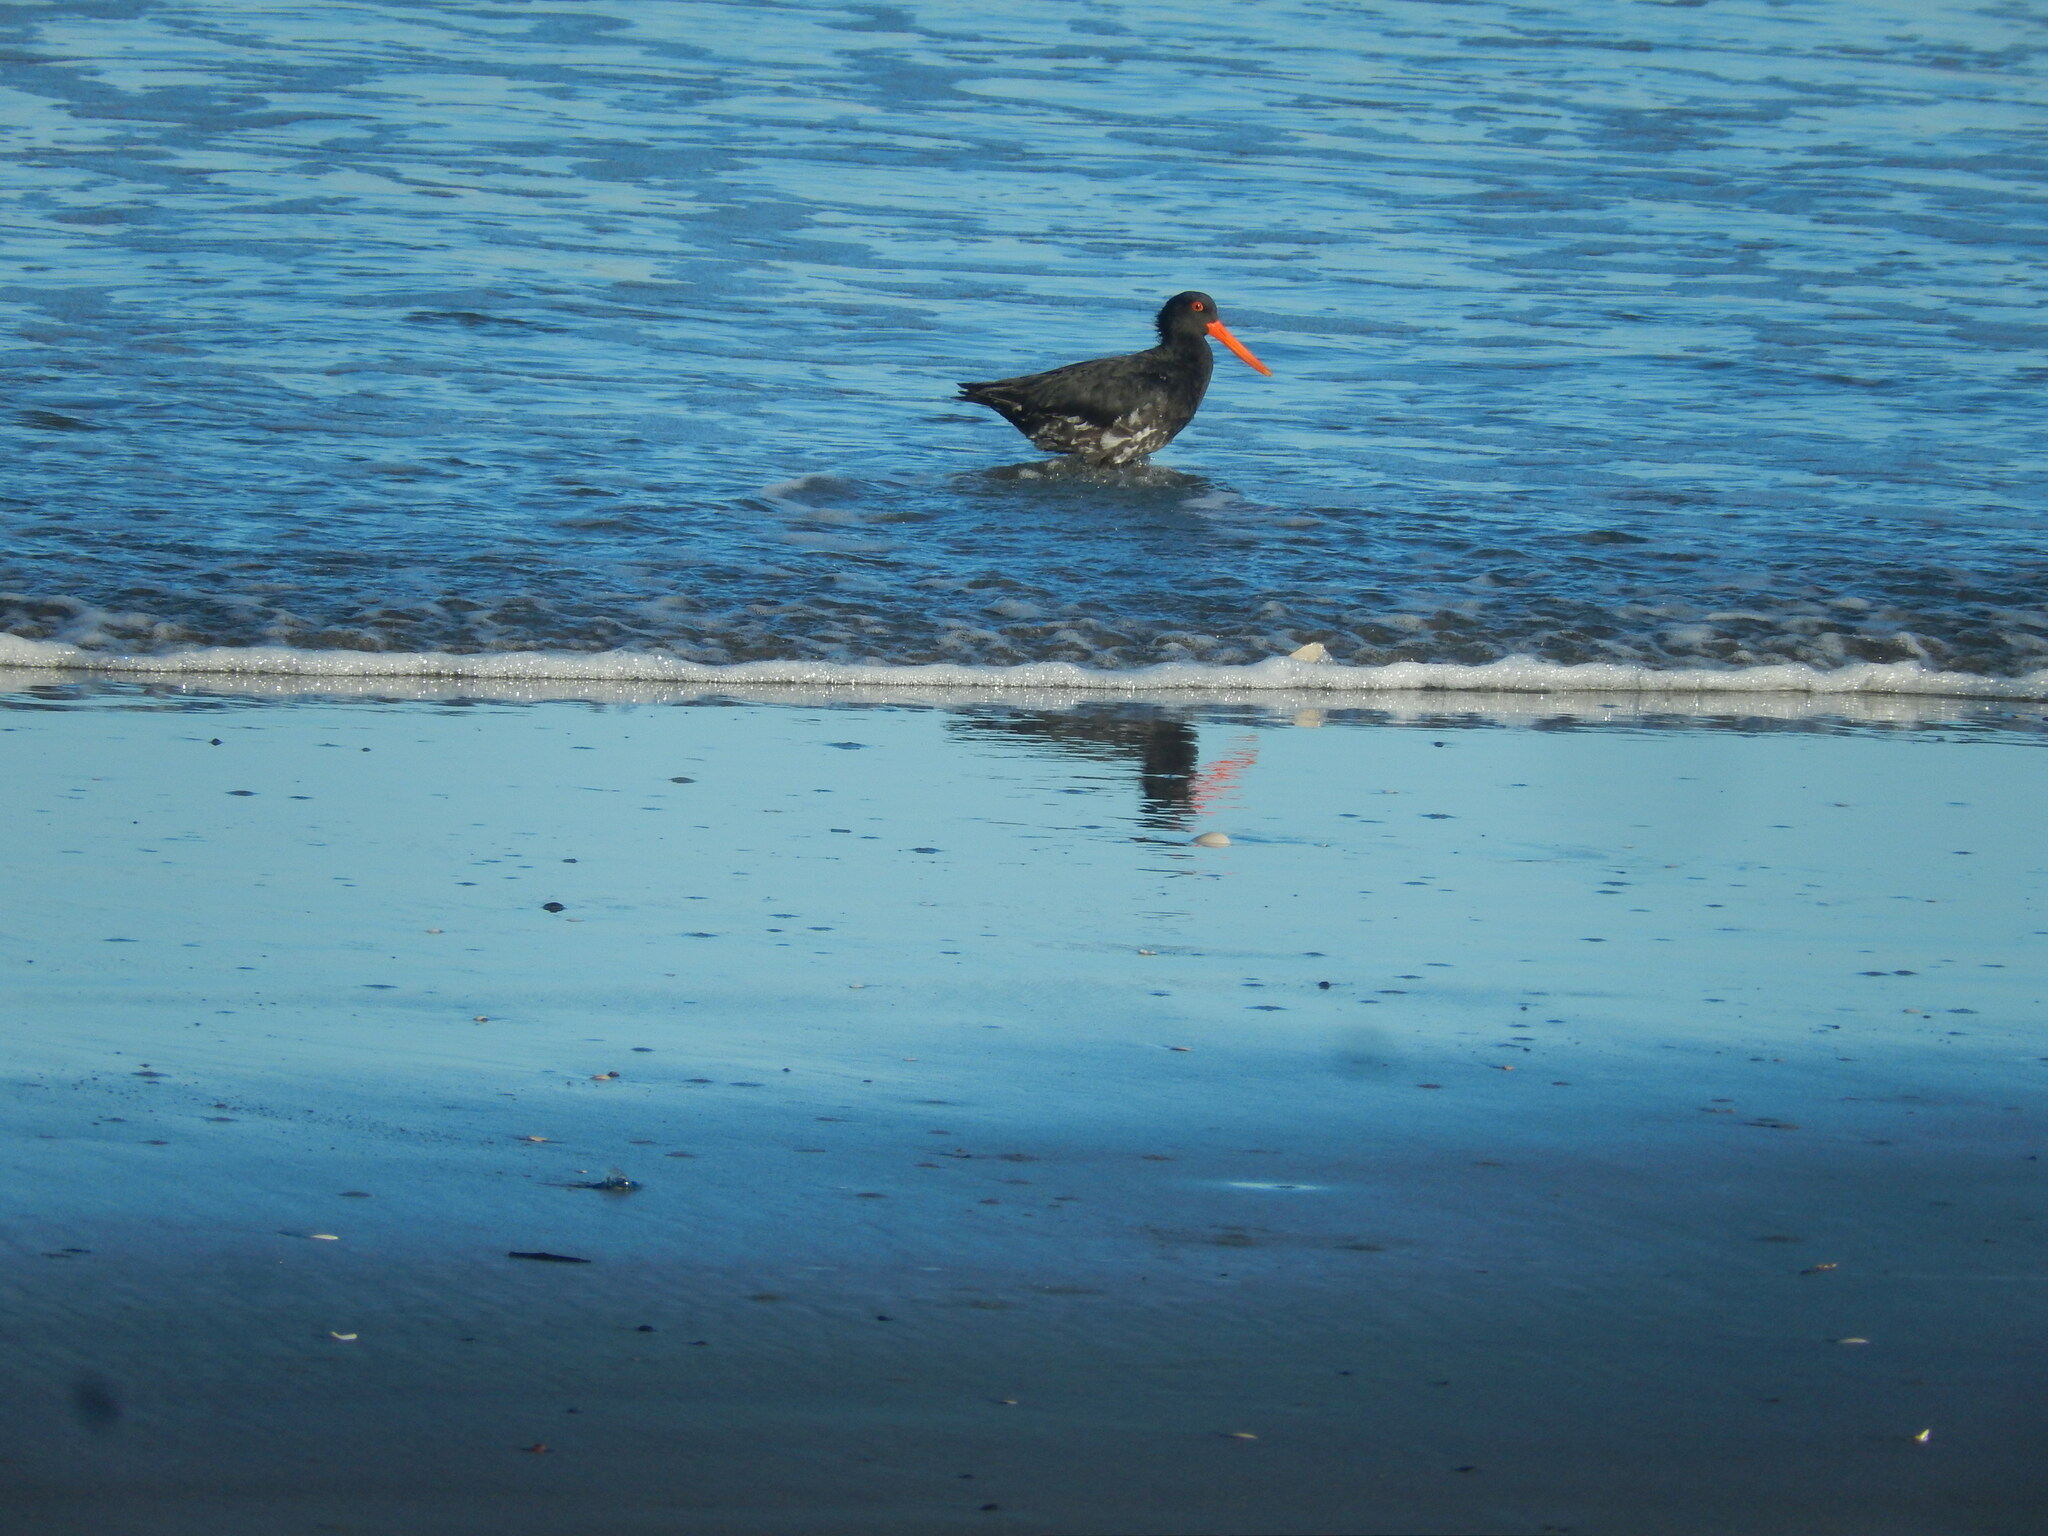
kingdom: Animalia
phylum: Chordata
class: Aves
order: Charadriiformes
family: Haematopodidae
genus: Haematopus
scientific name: Haematopus unicolor
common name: Variable oystercatcher
